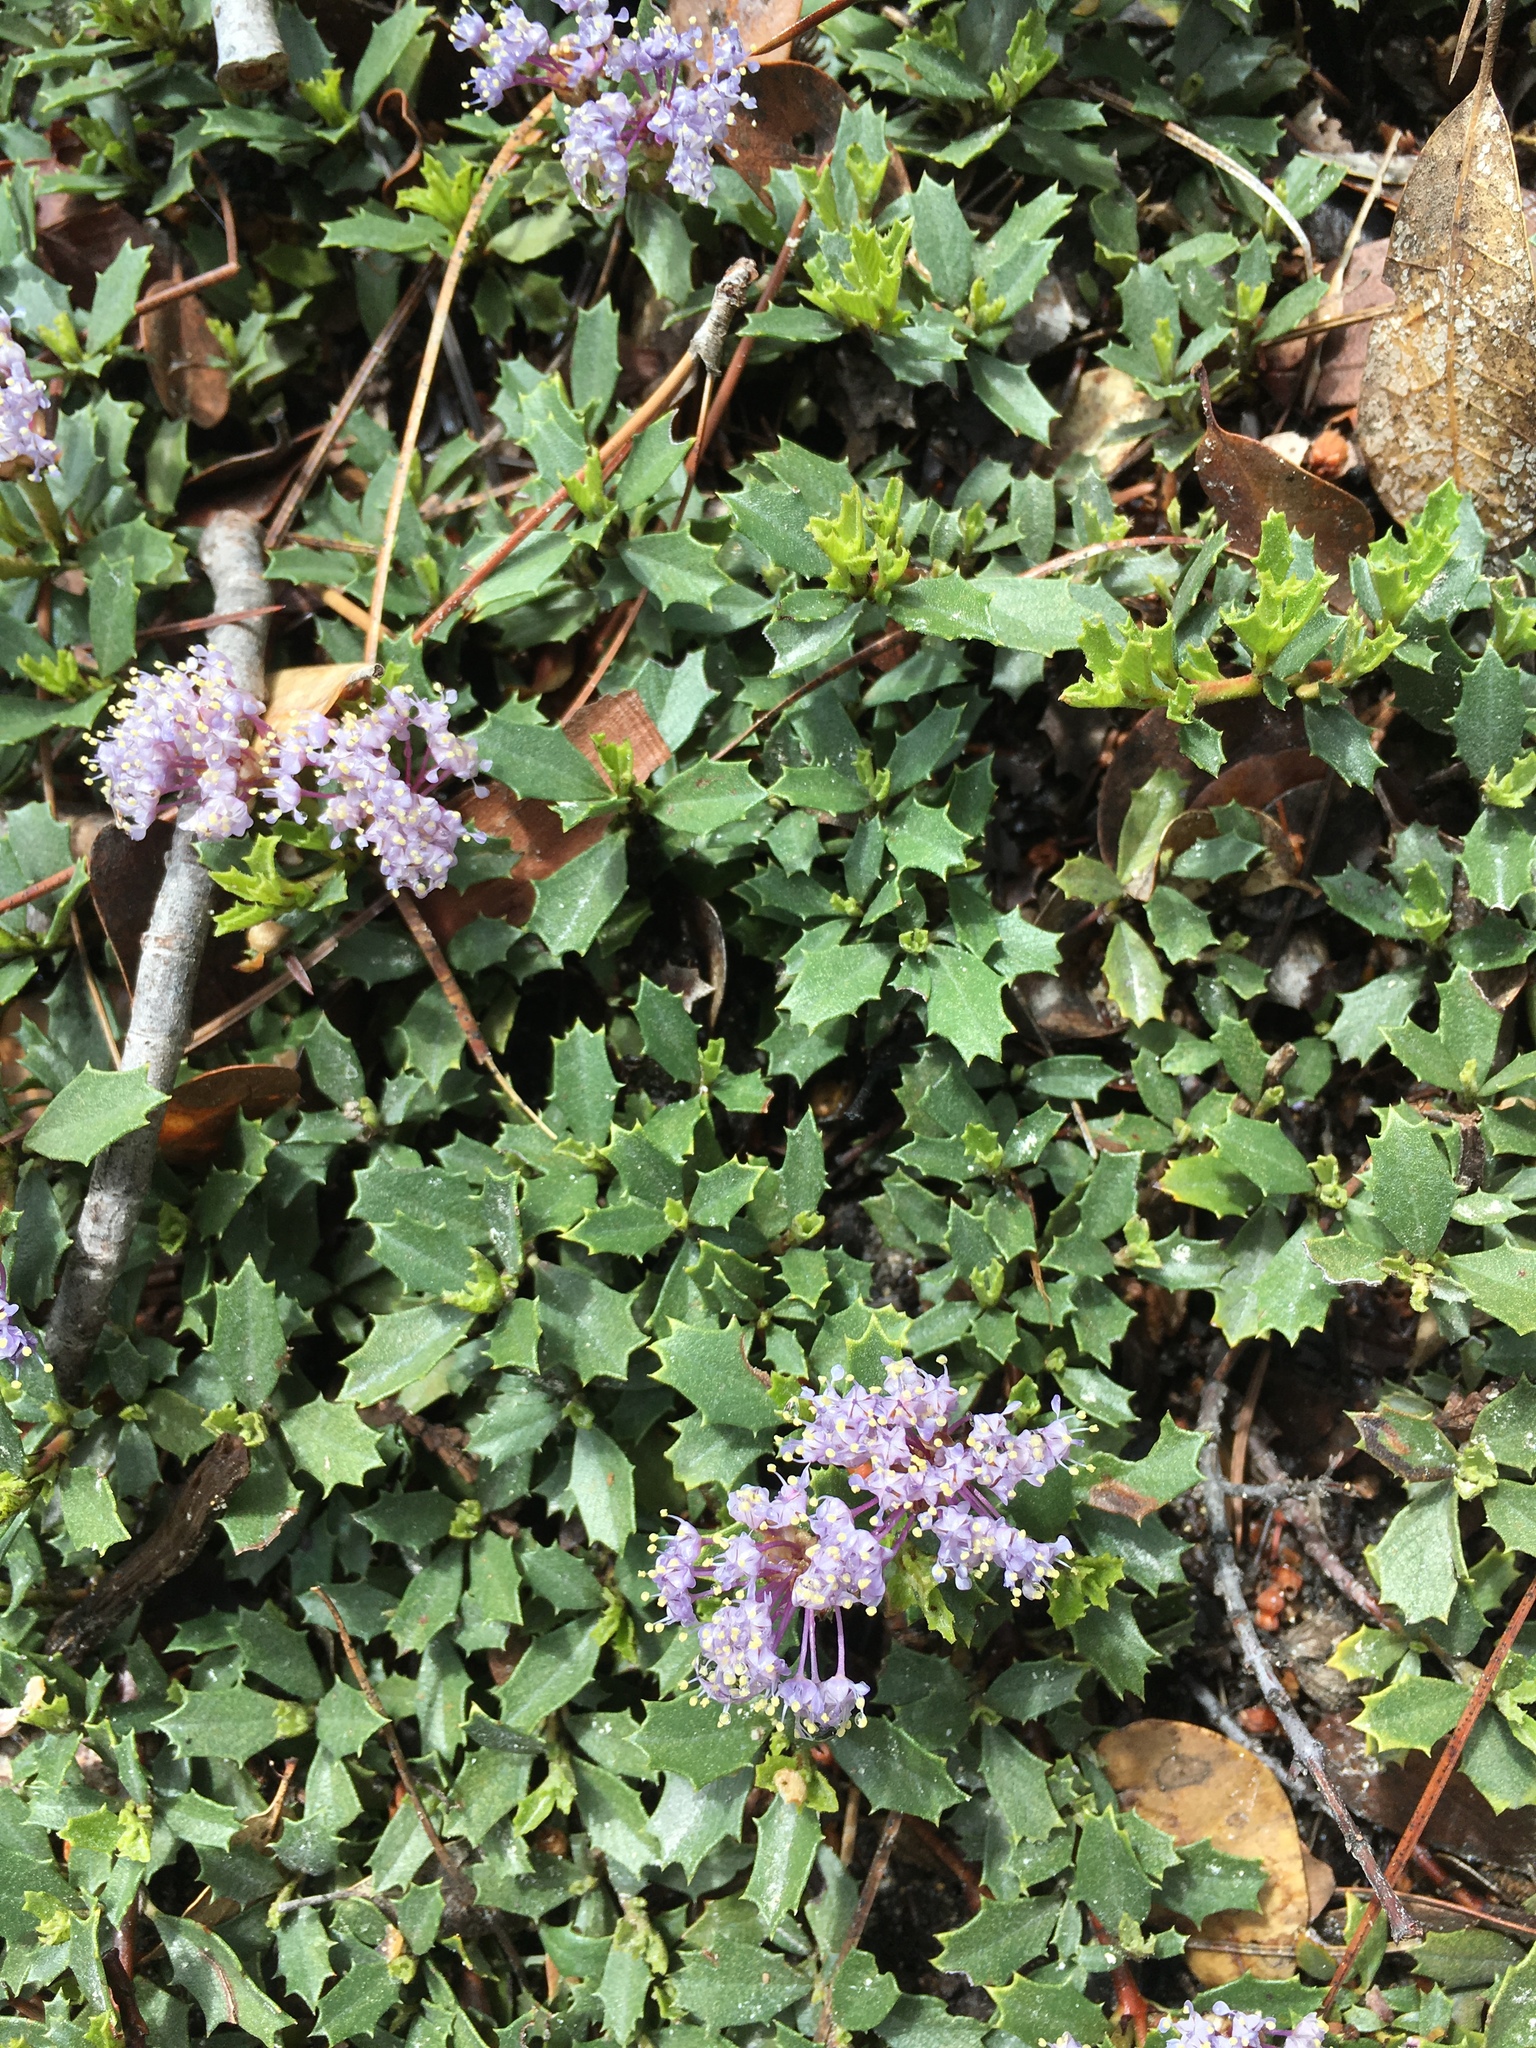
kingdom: Plantae
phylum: Tracheophyta
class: Magnoliopsida
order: Rosales
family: Rhamnaceae
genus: Ceanothus
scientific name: Ceanothus prostratus
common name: Mahala-mat
